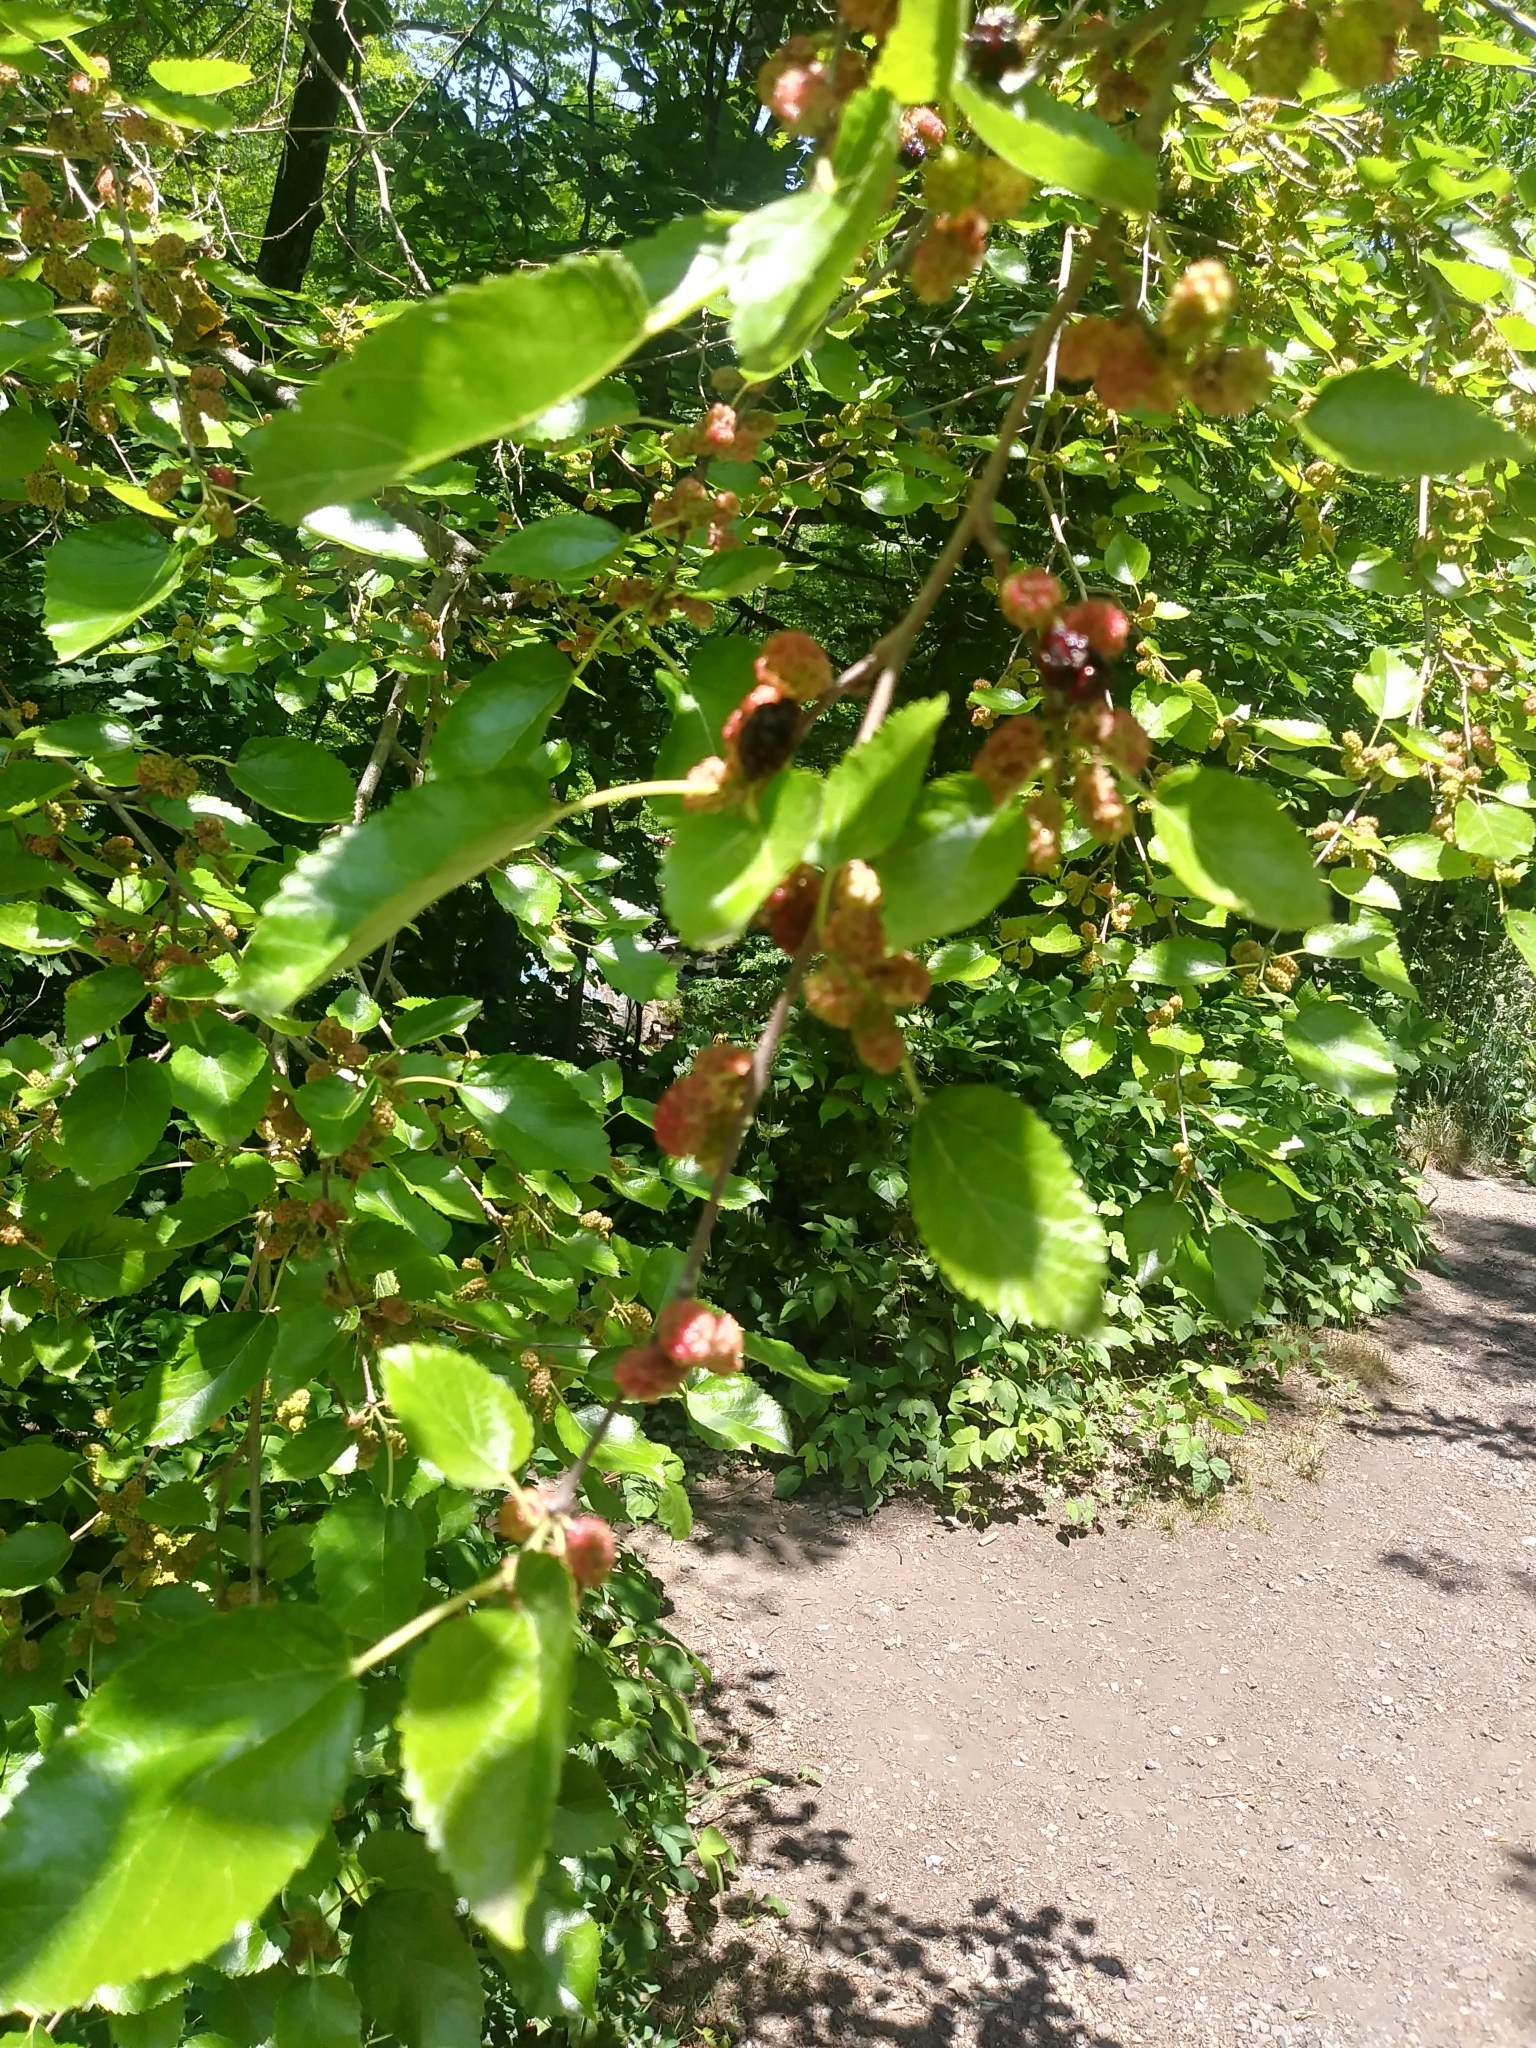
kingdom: Plantae
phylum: Tracheophyta
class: Magnoliopsida
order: Rosales
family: Moraceae
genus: Morus
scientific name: Morus alba
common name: White mulberry
